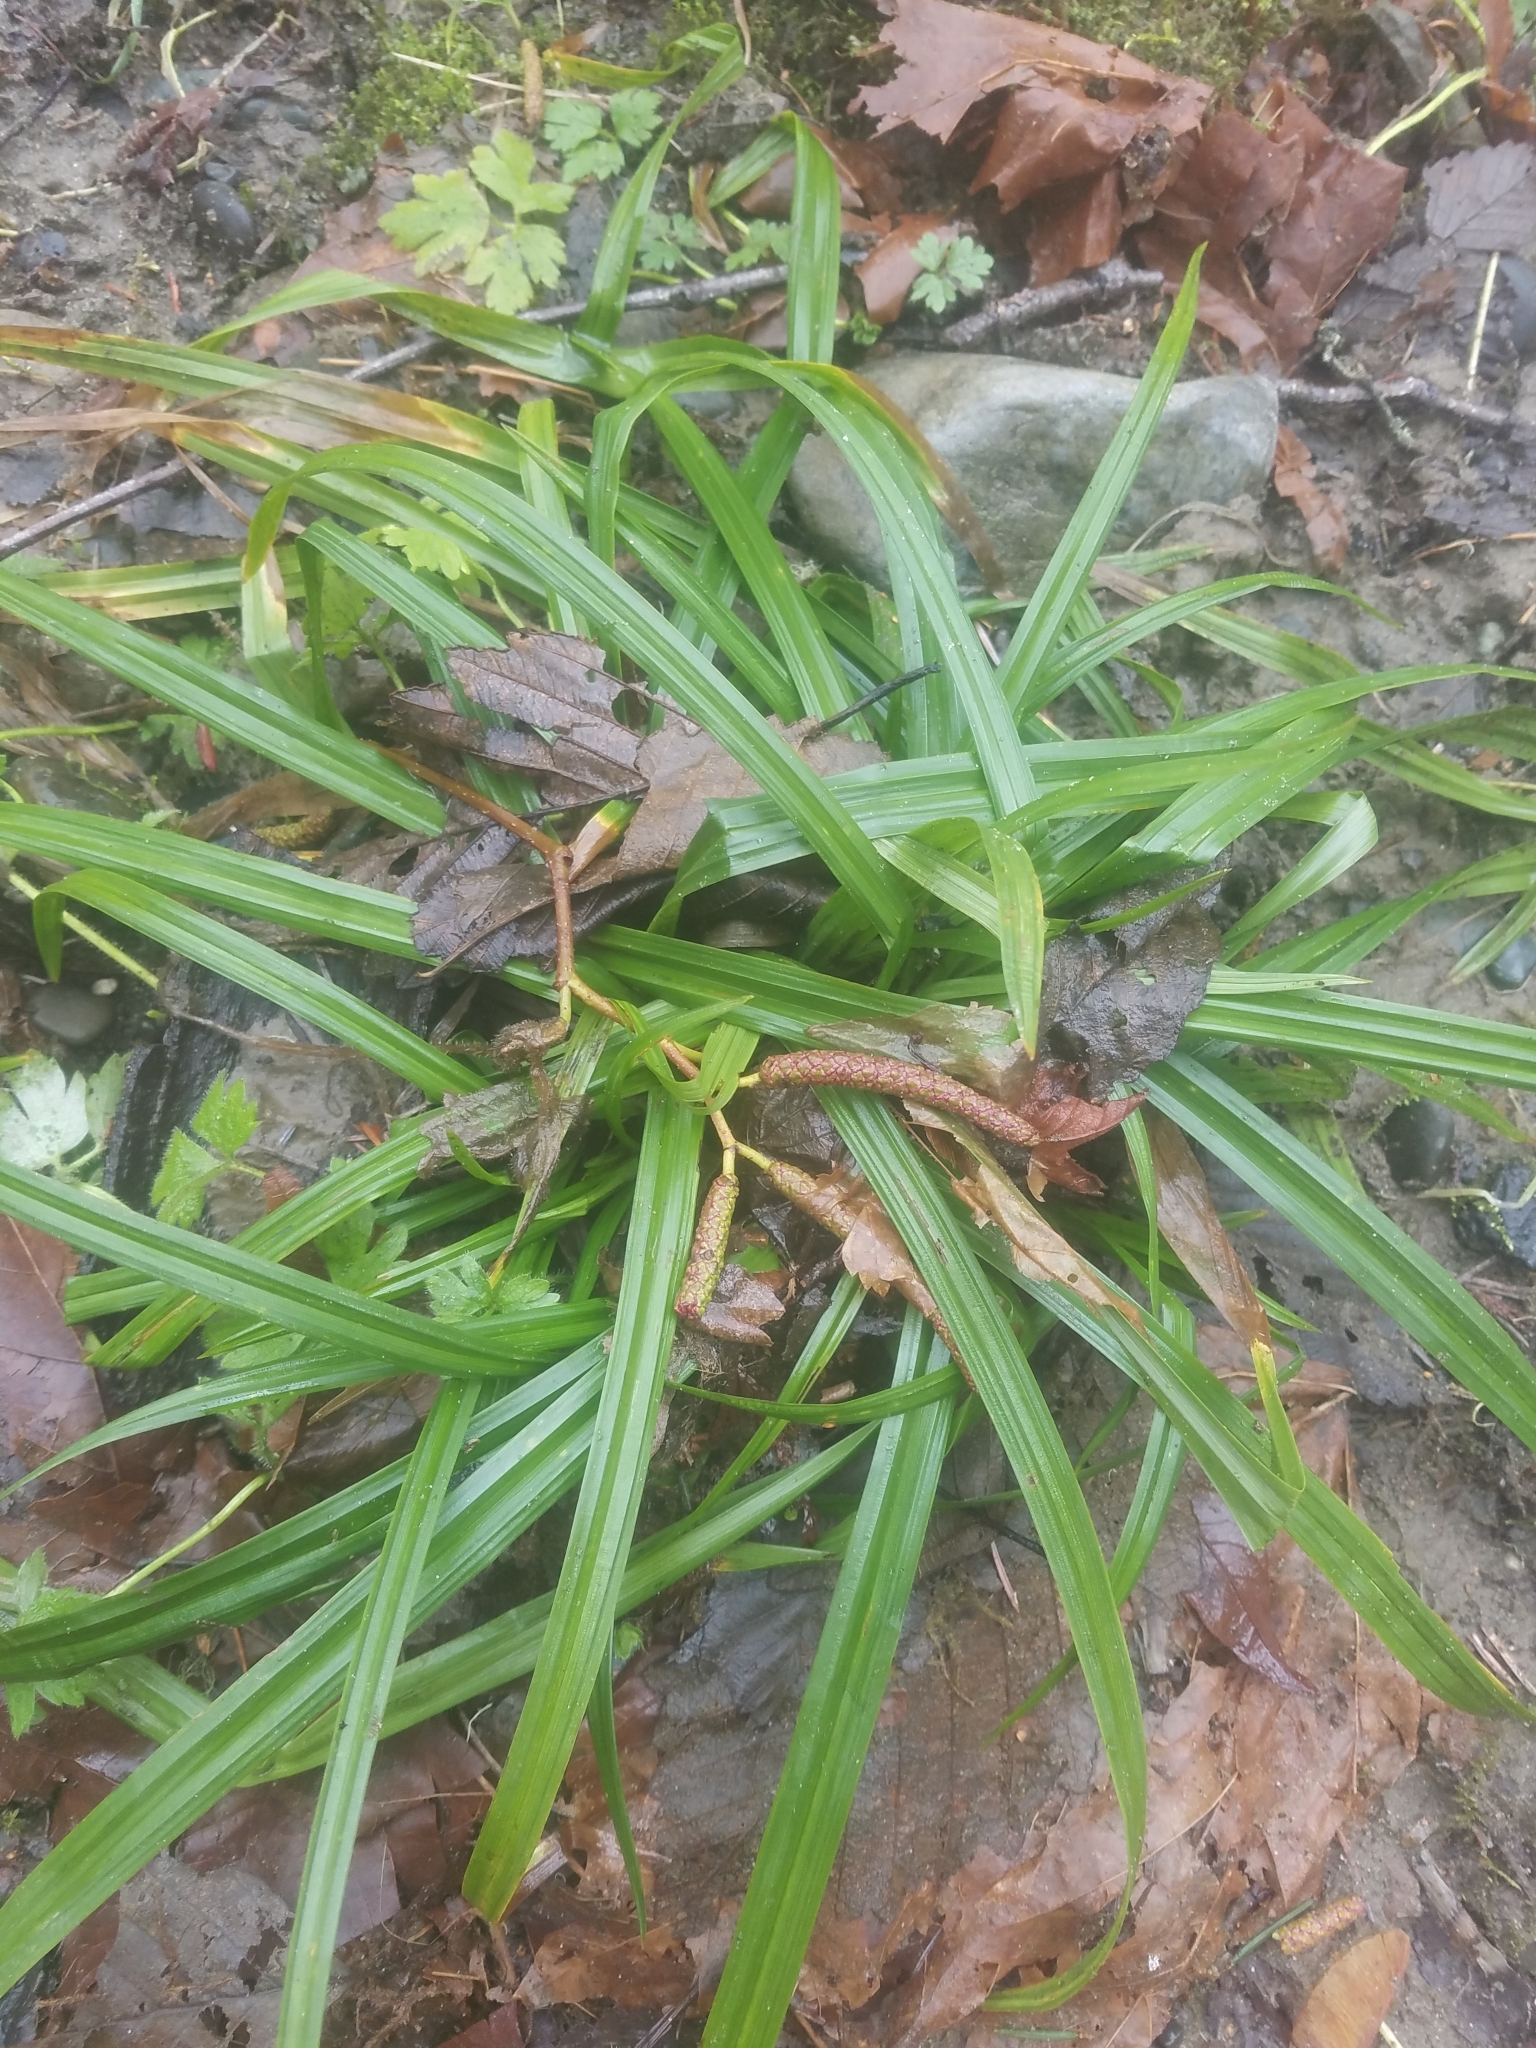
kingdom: Plantae
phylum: Tracheophyta
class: Liliopsida
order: Poales
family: Cyperaceae
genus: Carex
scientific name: Carex hendersonii
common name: Henderson's sedge
